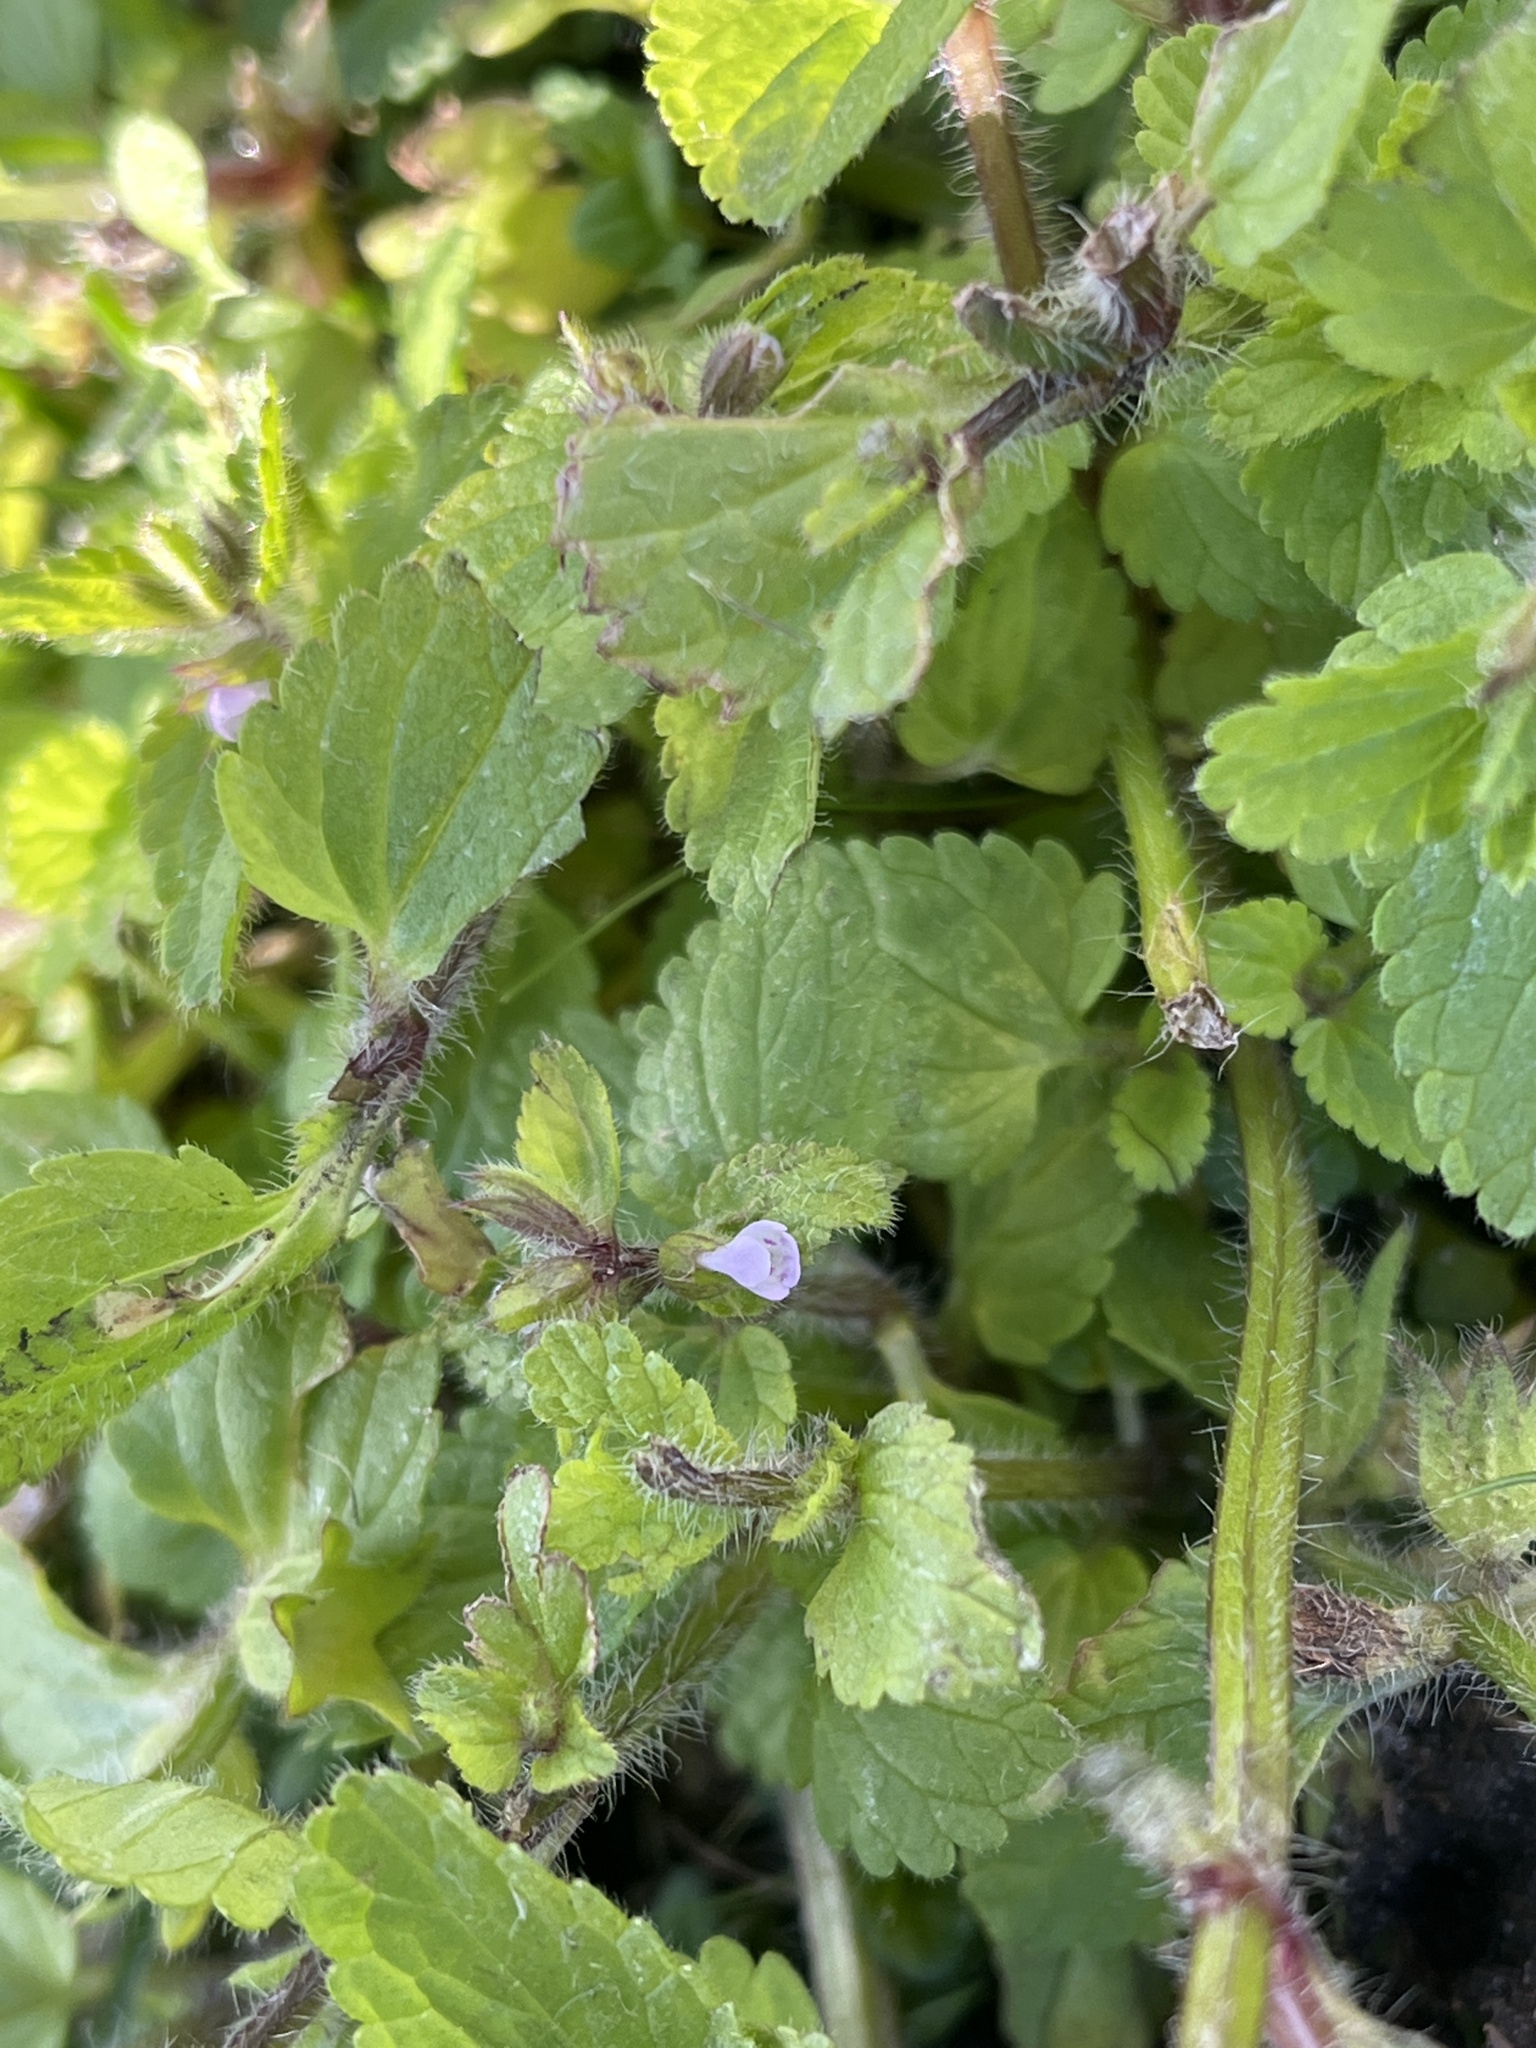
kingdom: Plantae
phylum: Tracheophyta
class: Magnoliopsida
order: Lamiales
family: Lamiaceae
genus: Stachys
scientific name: Stachys arvensis
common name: Field woundwort
